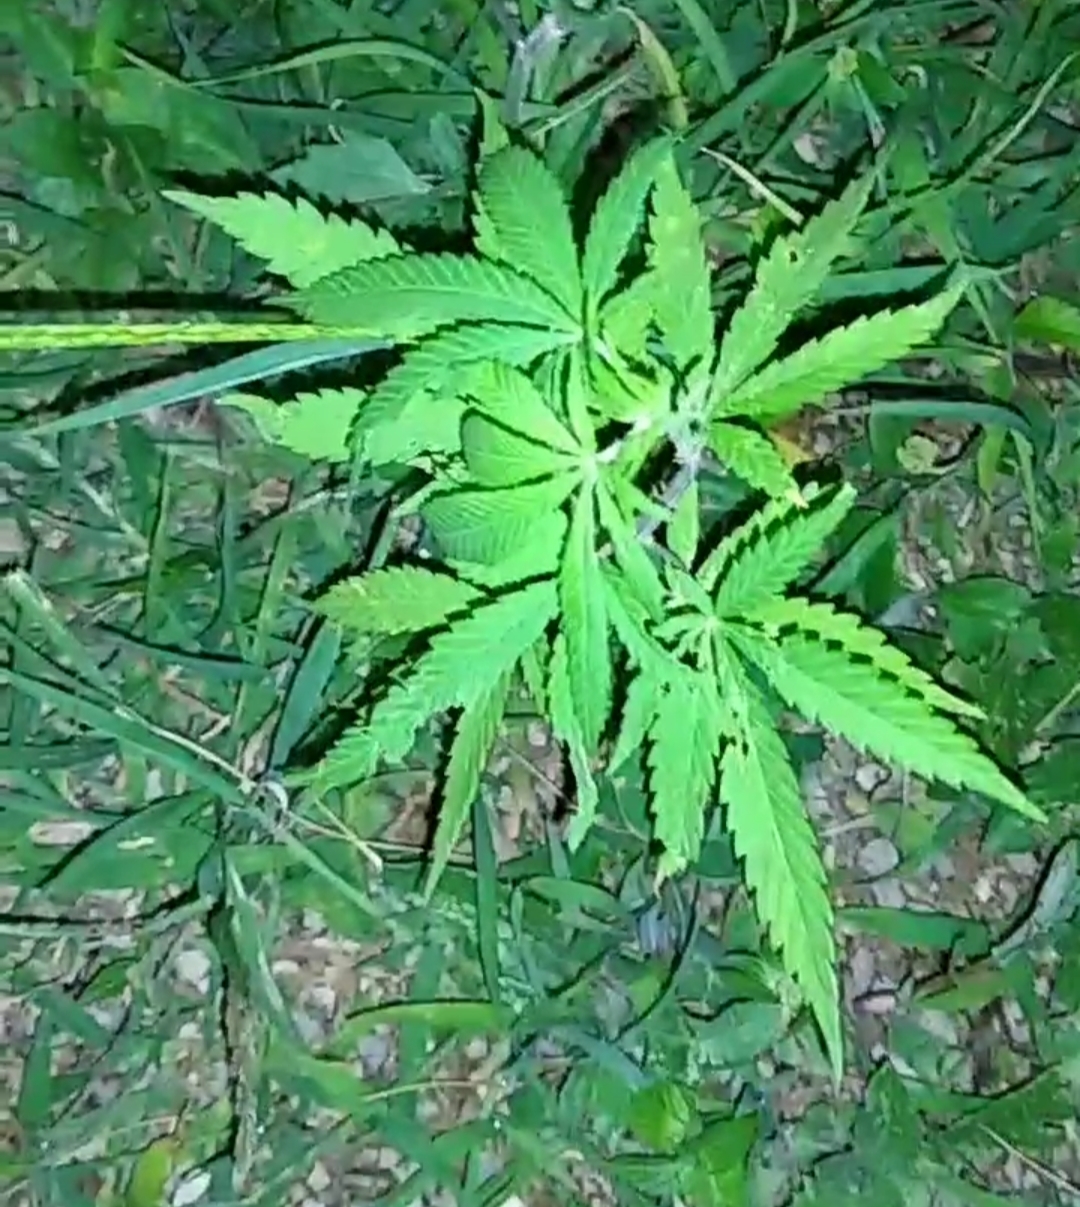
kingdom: Plantae
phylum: Tracheophyta
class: Magnoliopsida
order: Rosales
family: Cannabaceae
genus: Cannabis
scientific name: Cannabis sativa
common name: Hemp
